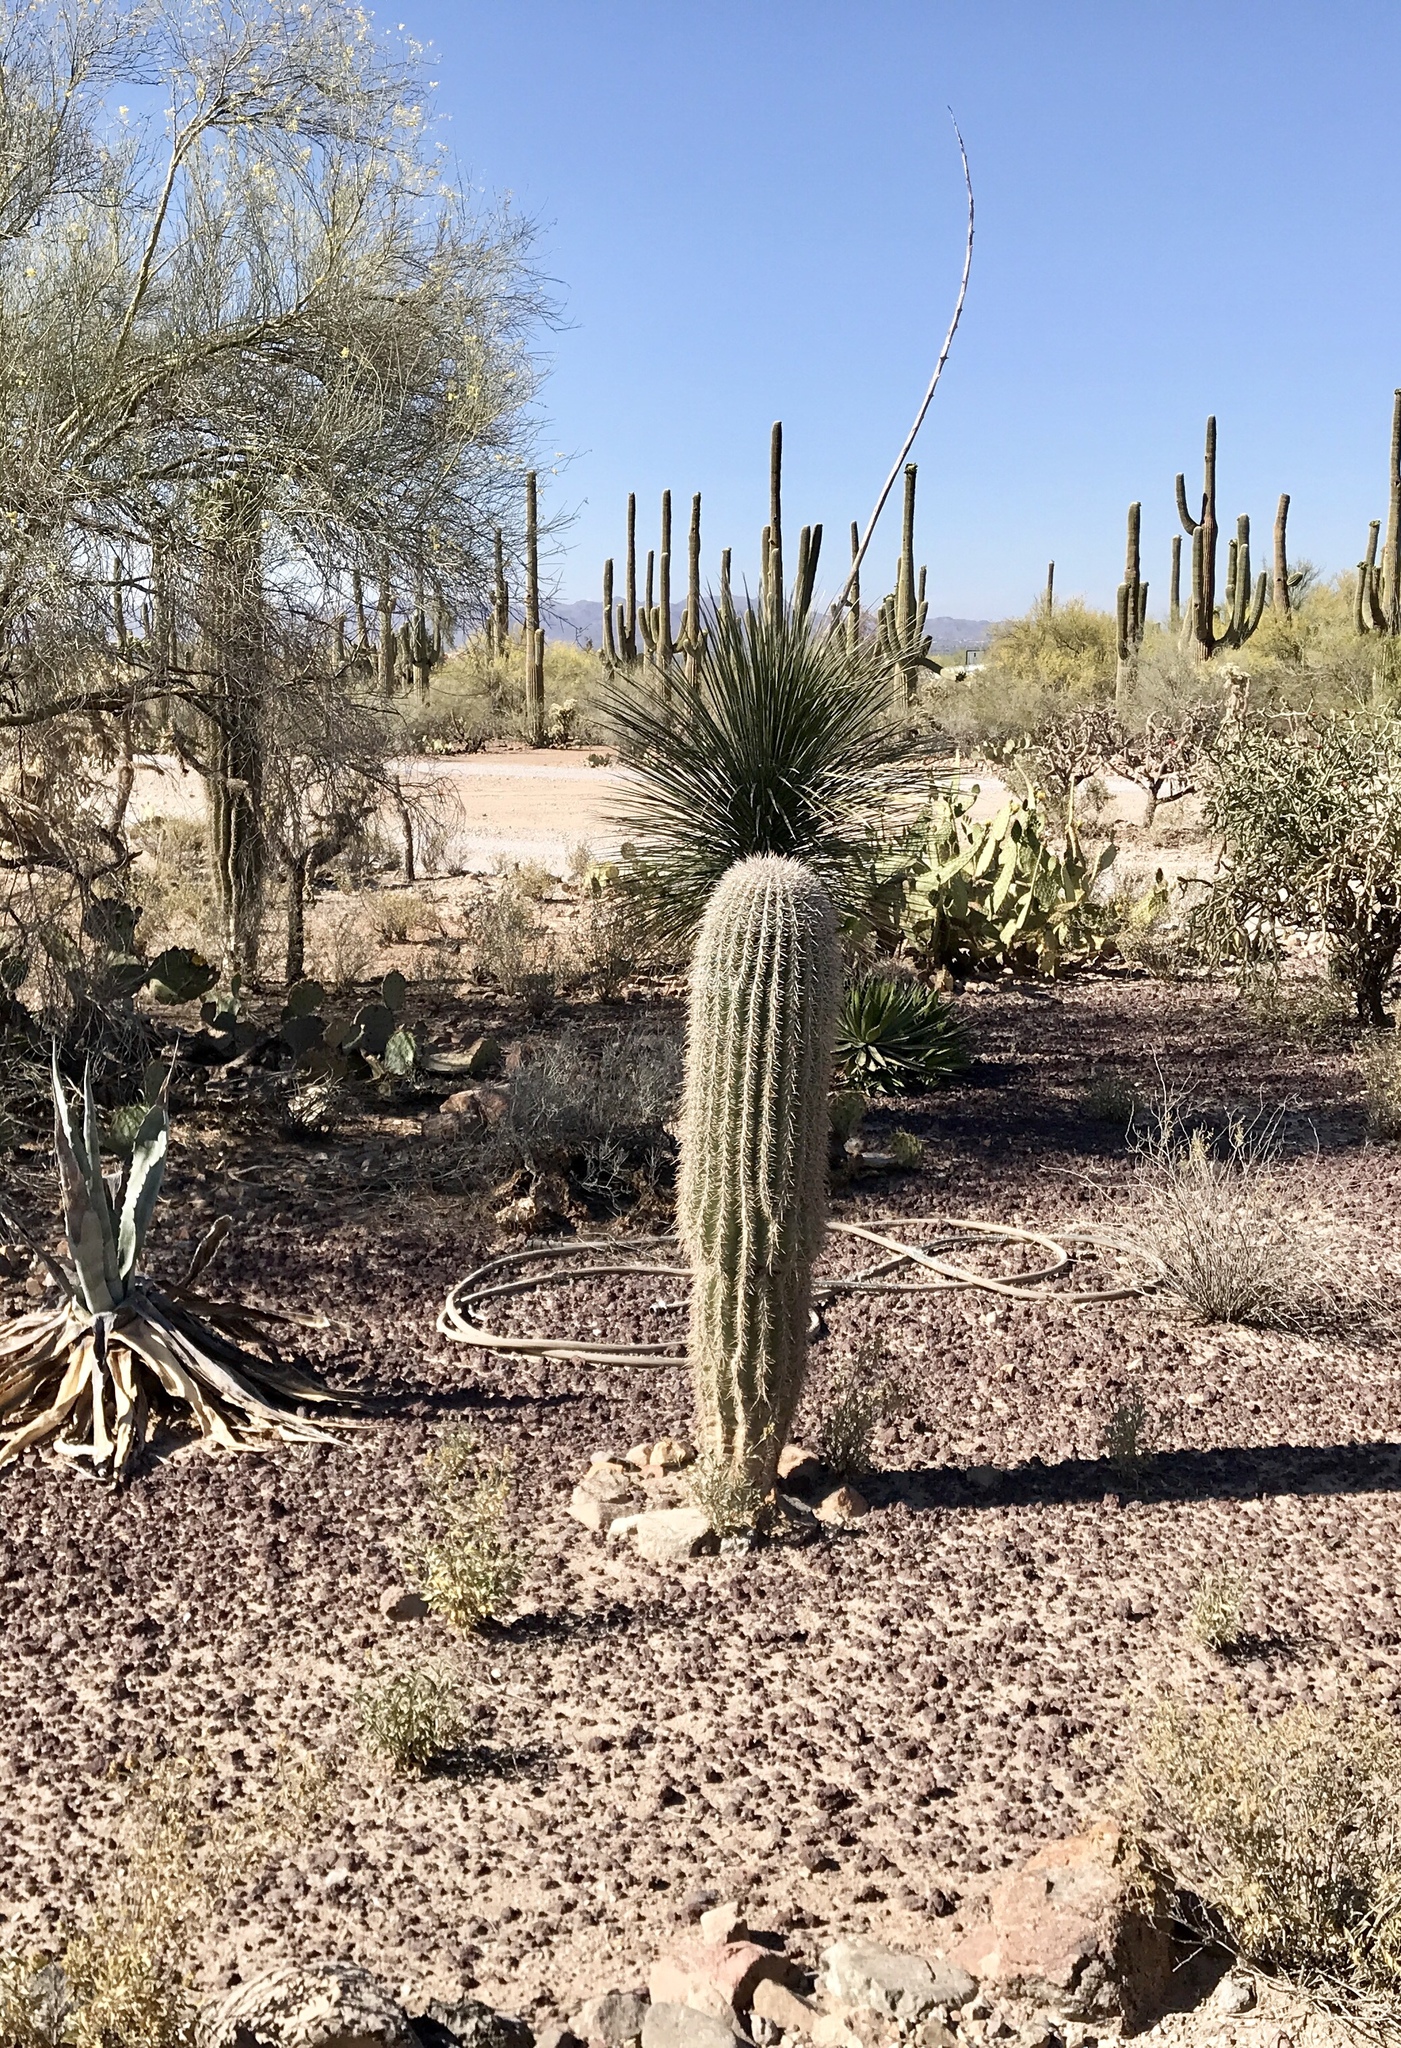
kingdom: Plantae
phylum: Tracheophyta
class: Magnoliopsida
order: Caryophyllales
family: Cactaceae
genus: Carnegiea
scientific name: Carnegiea gigantea
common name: Saguaro
